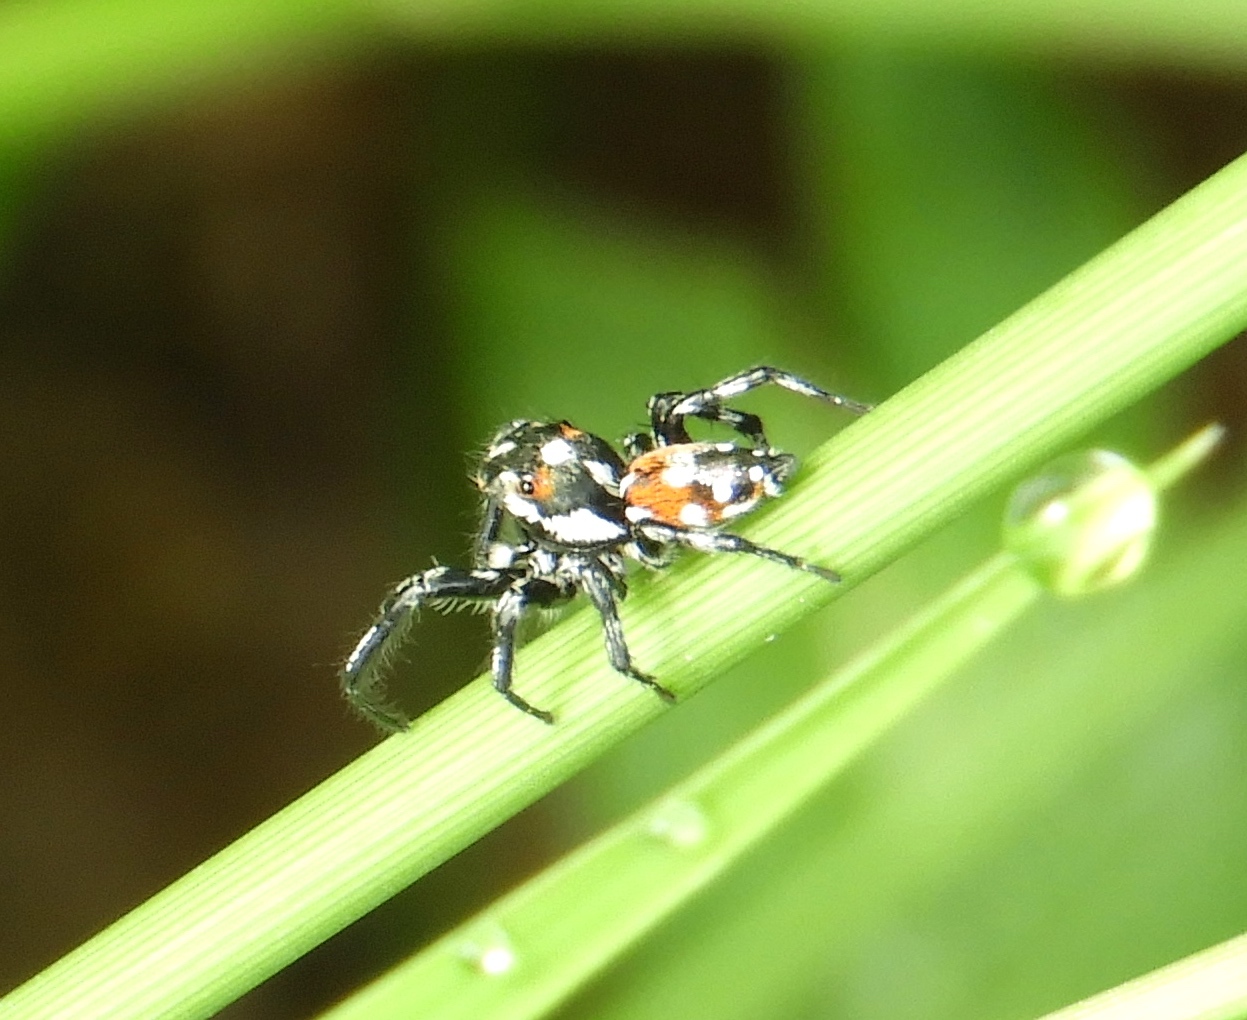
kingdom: Animalia
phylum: Arthropoda
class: Arachnida
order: Araneae
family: Salticidae
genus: Nycerella
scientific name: Nycerella delecta
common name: Jumping spiders
